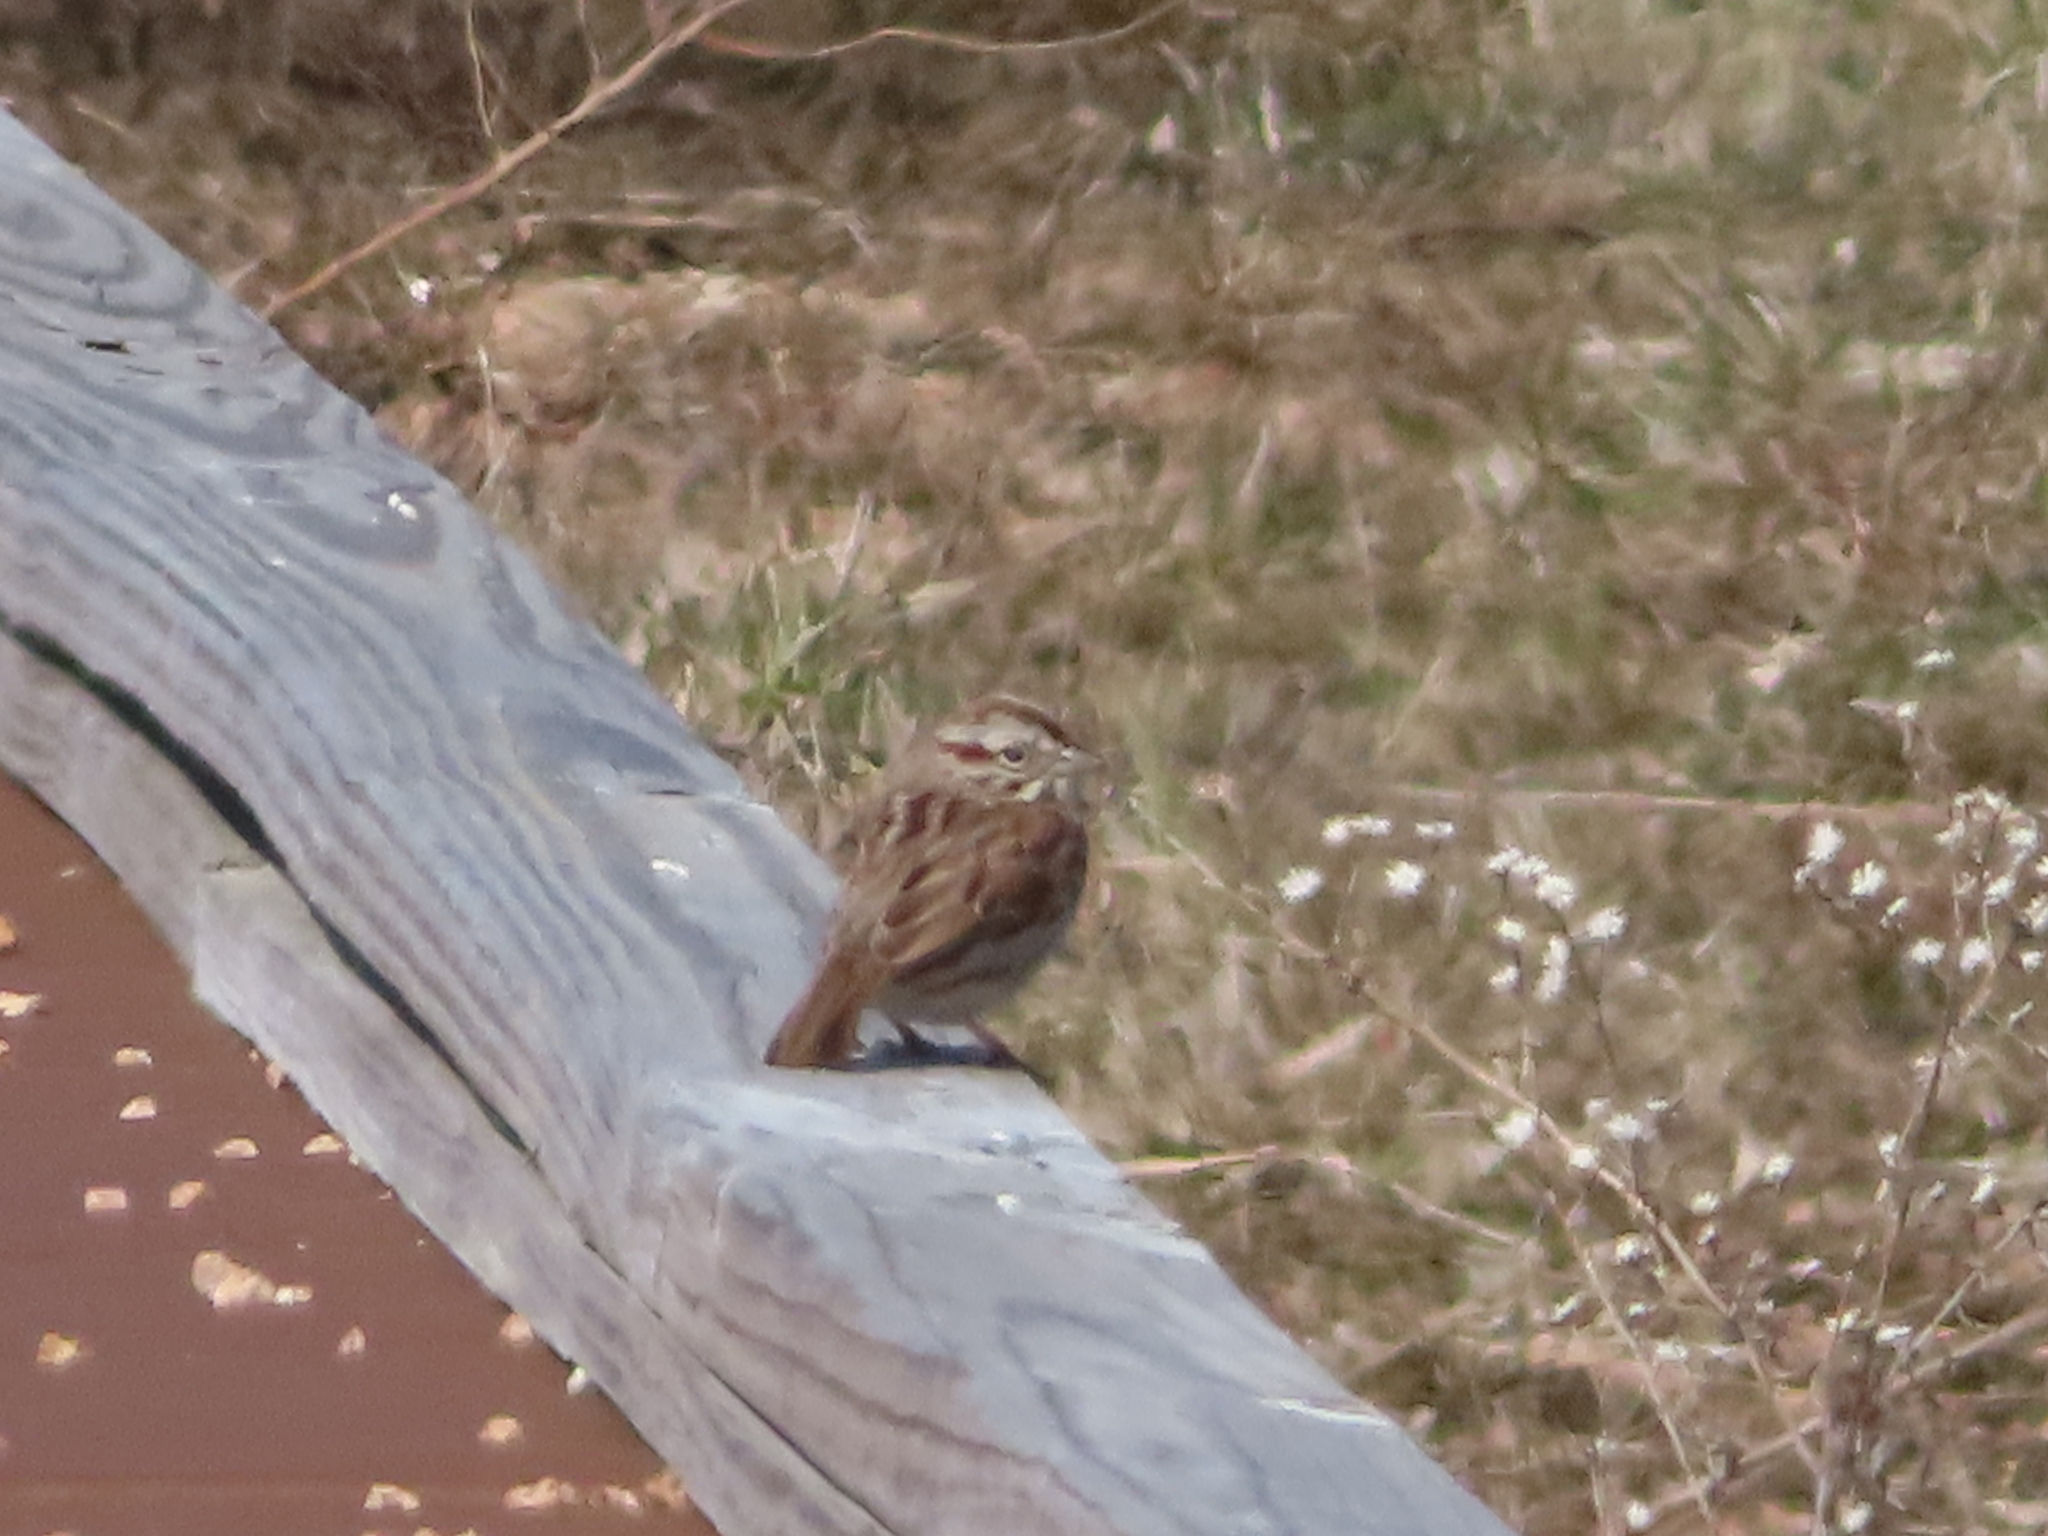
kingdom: Animalia
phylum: Chordata
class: Aves
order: Passeriformes
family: Passerellidae
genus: Melospiza
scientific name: Melospiza melodia
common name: Song sparrow
